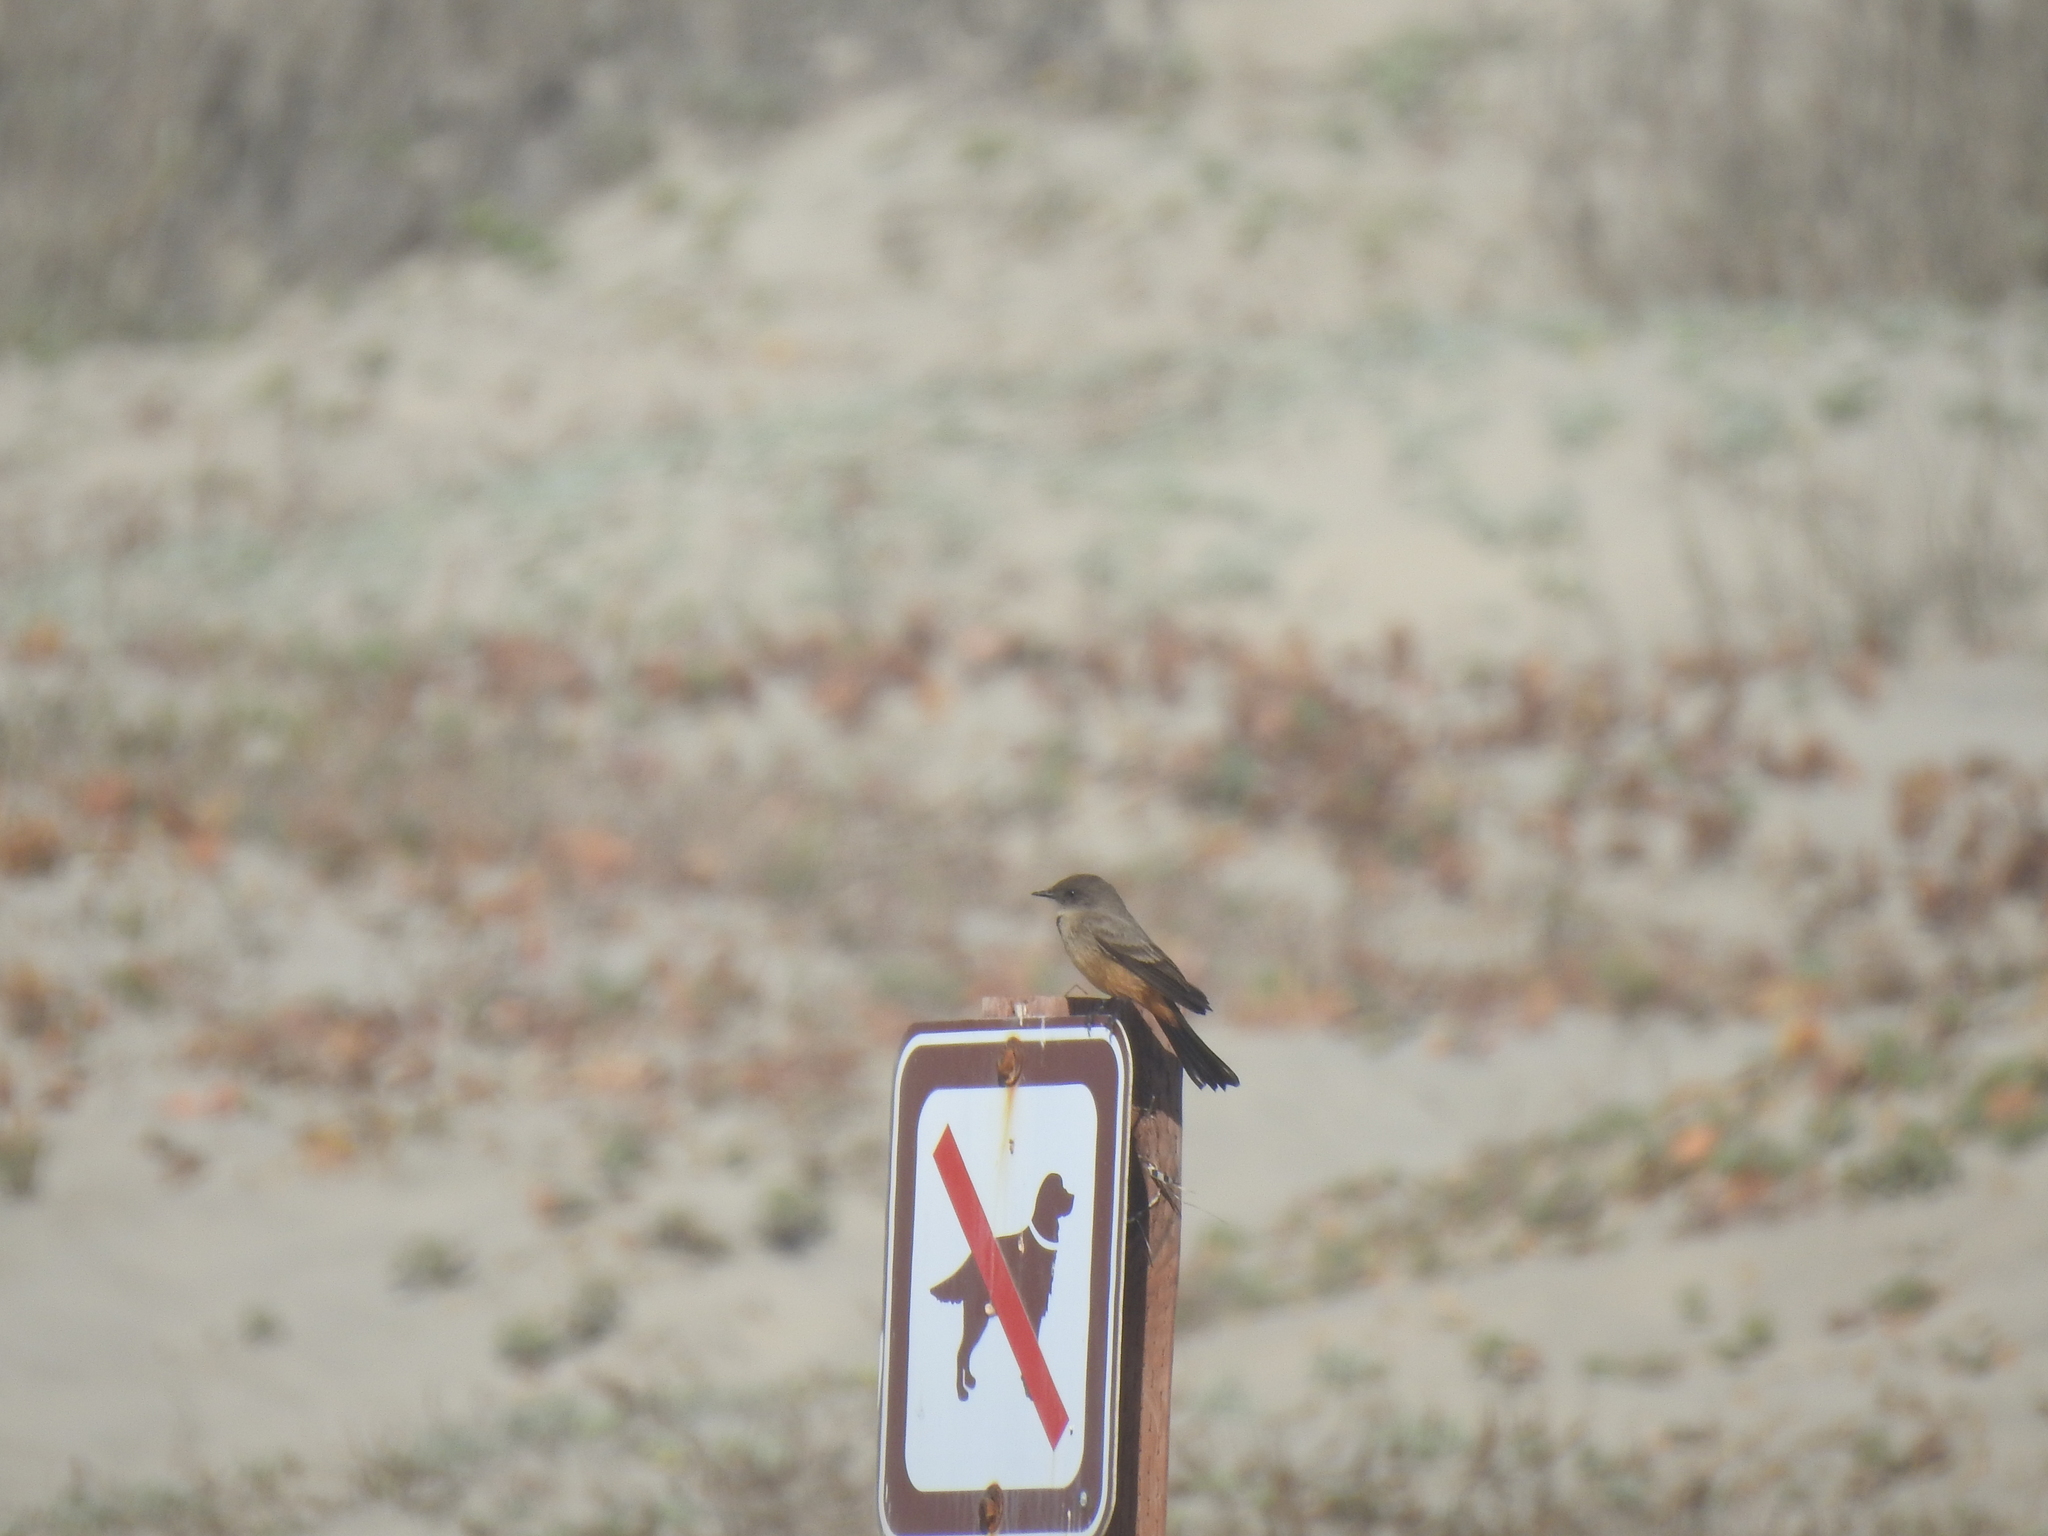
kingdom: Animalia
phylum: Chordata
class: Aves
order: Passeriformes
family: Tyrannidae
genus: Sayornis
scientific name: Sayornis saya
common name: Say's phoebe
